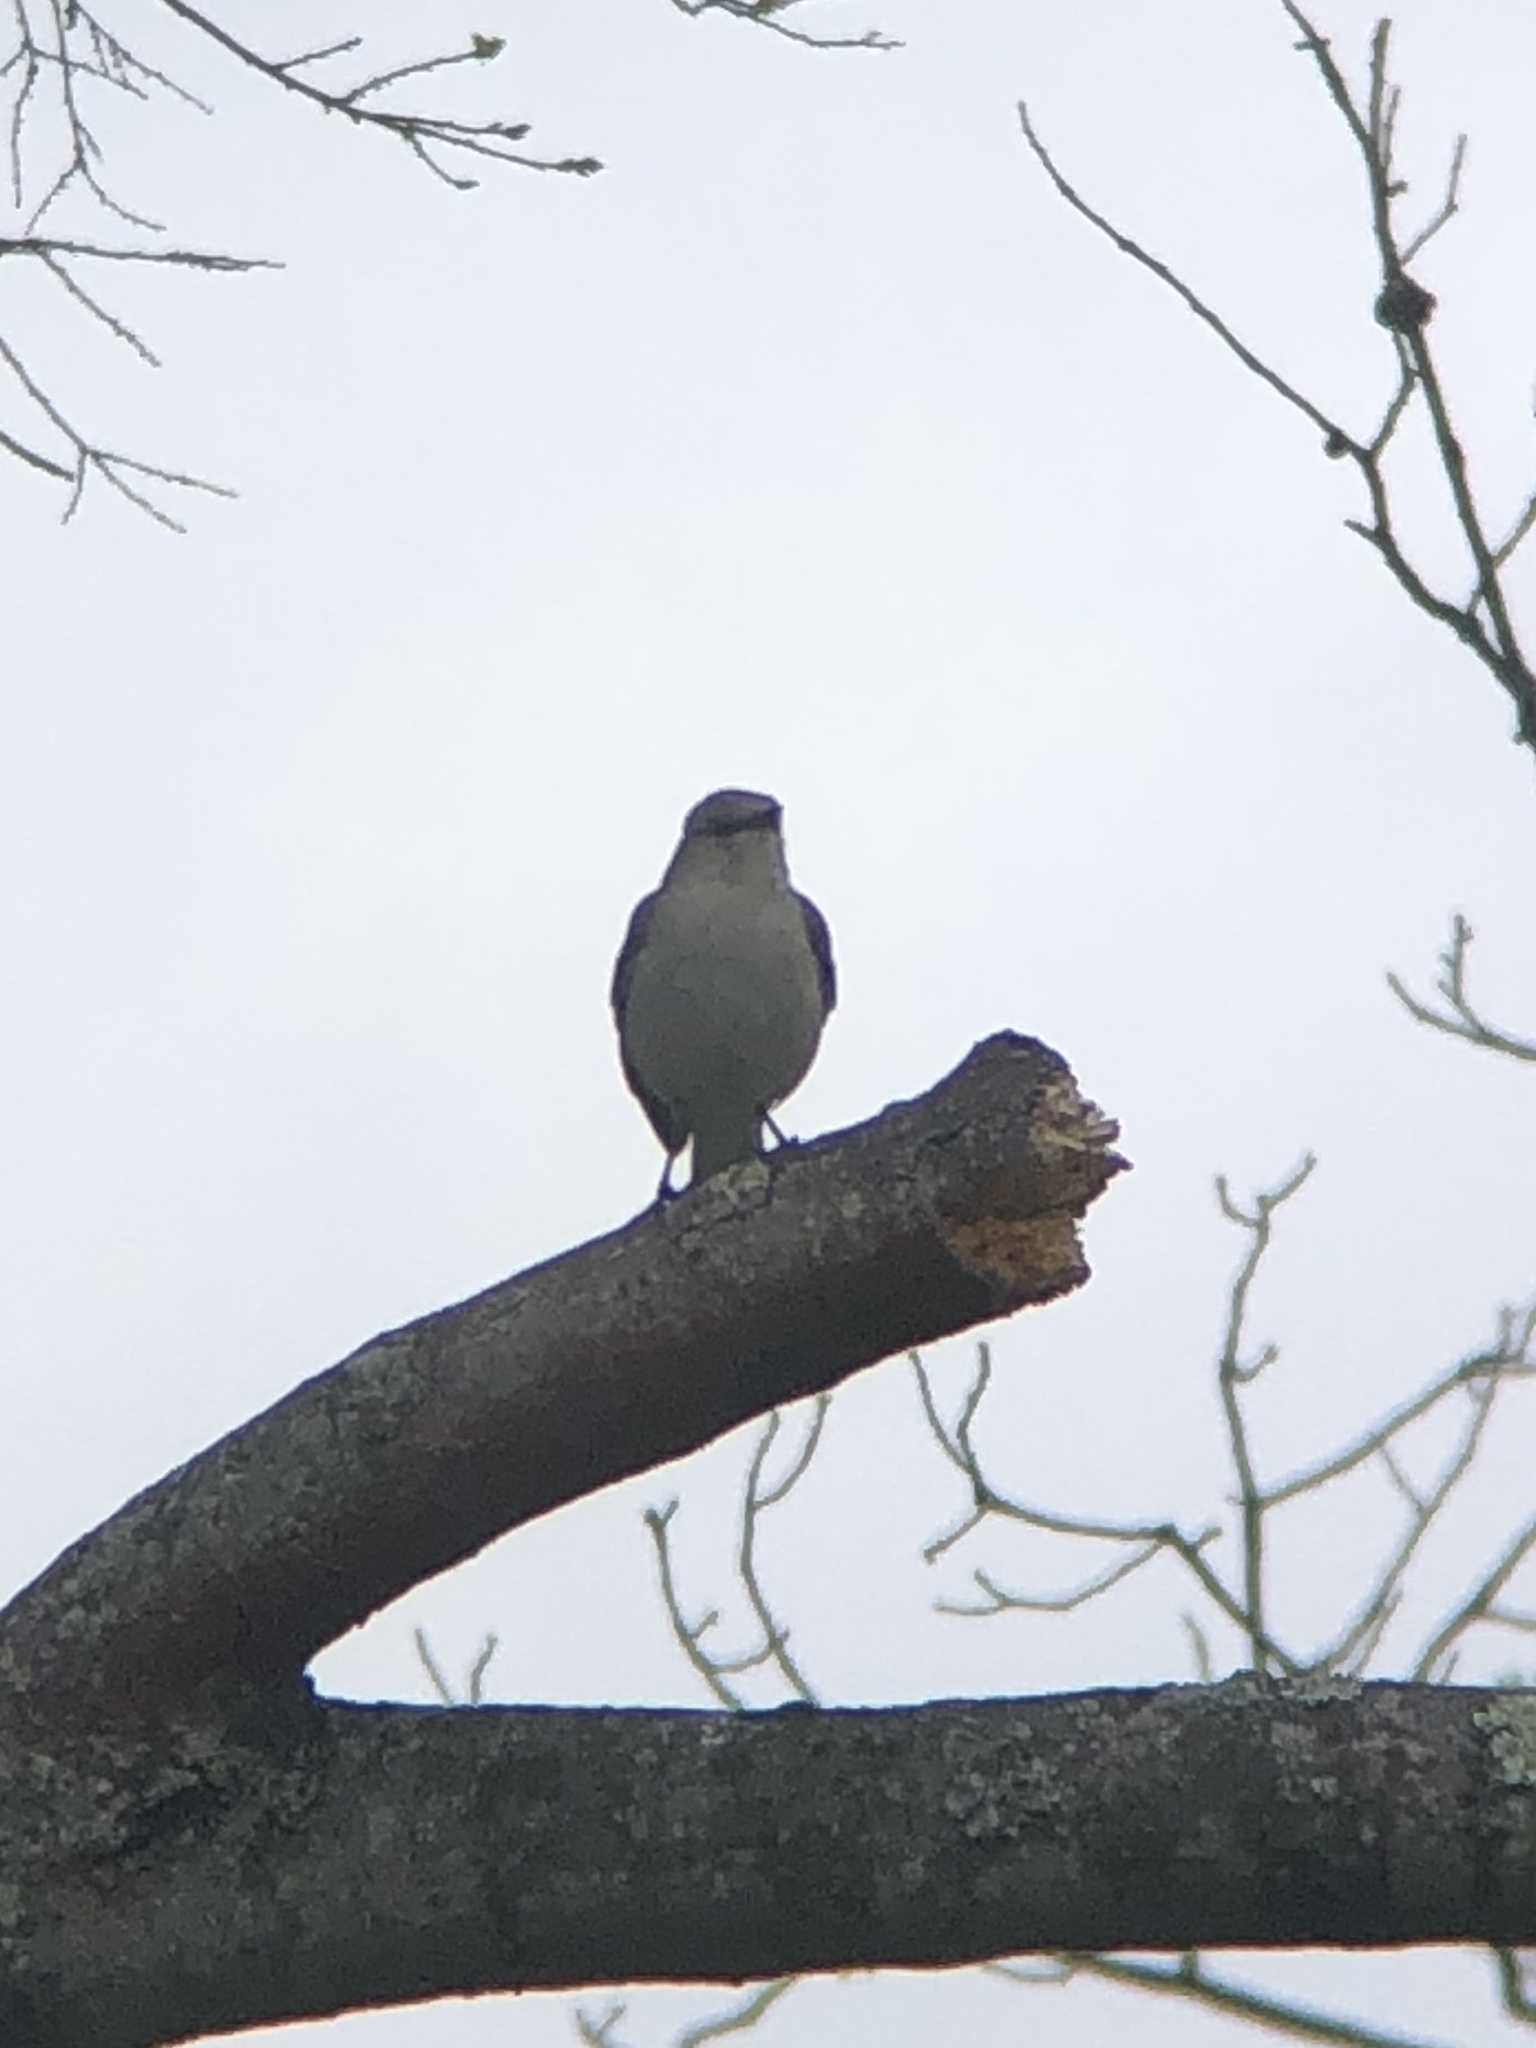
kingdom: Animalia
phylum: Chordata
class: Aves
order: Passeriformes
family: Mimidae
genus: Mimus
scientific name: Mimus polyglottos
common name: Northern mockingbird
